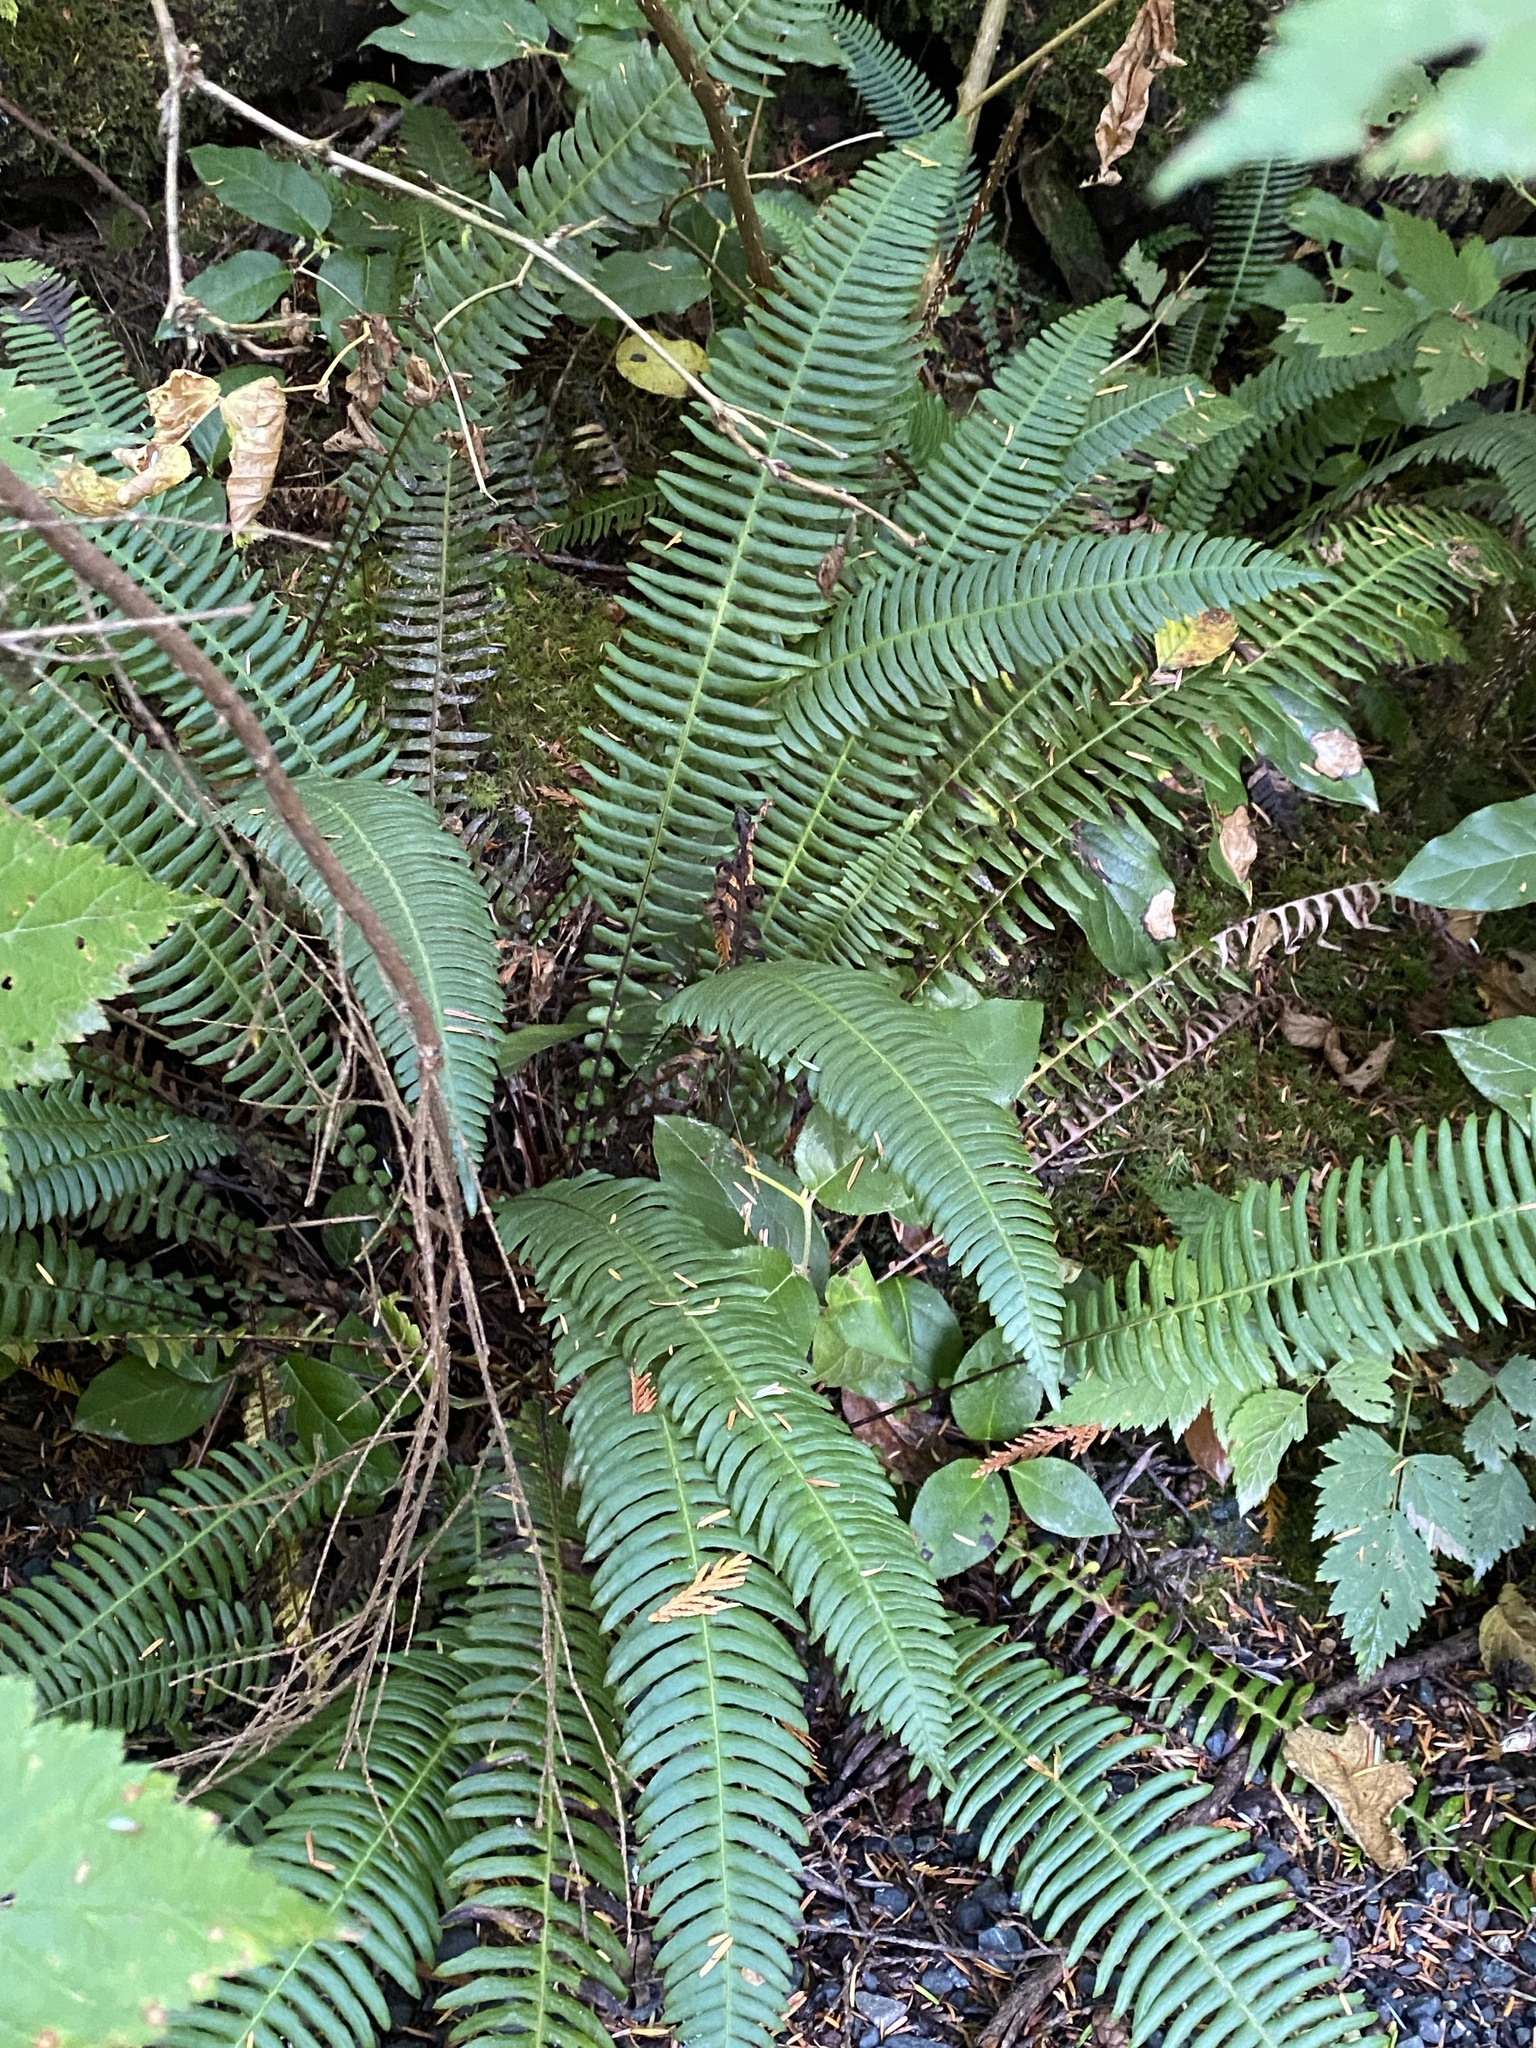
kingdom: Plantae
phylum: Tracheophyta
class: Polypodiopsida
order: Polypodiales
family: Blechnaceae
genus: Struthiopteris
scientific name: Struthiopteris spicant
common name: Deer fern
